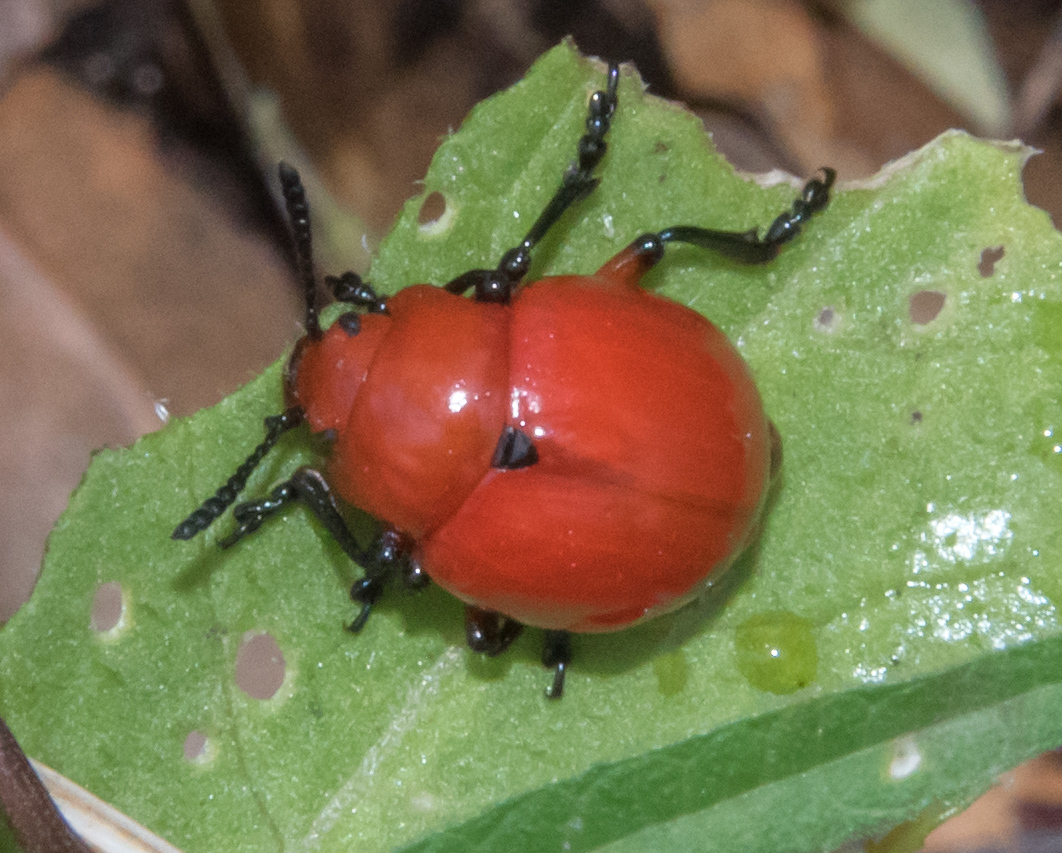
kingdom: Animalia
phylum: Arthropoda
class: Insecta
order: Coleoptera
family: Chrysomelidae
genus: Leptinotarsa
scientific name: Leptinotarsa rubiginosa
